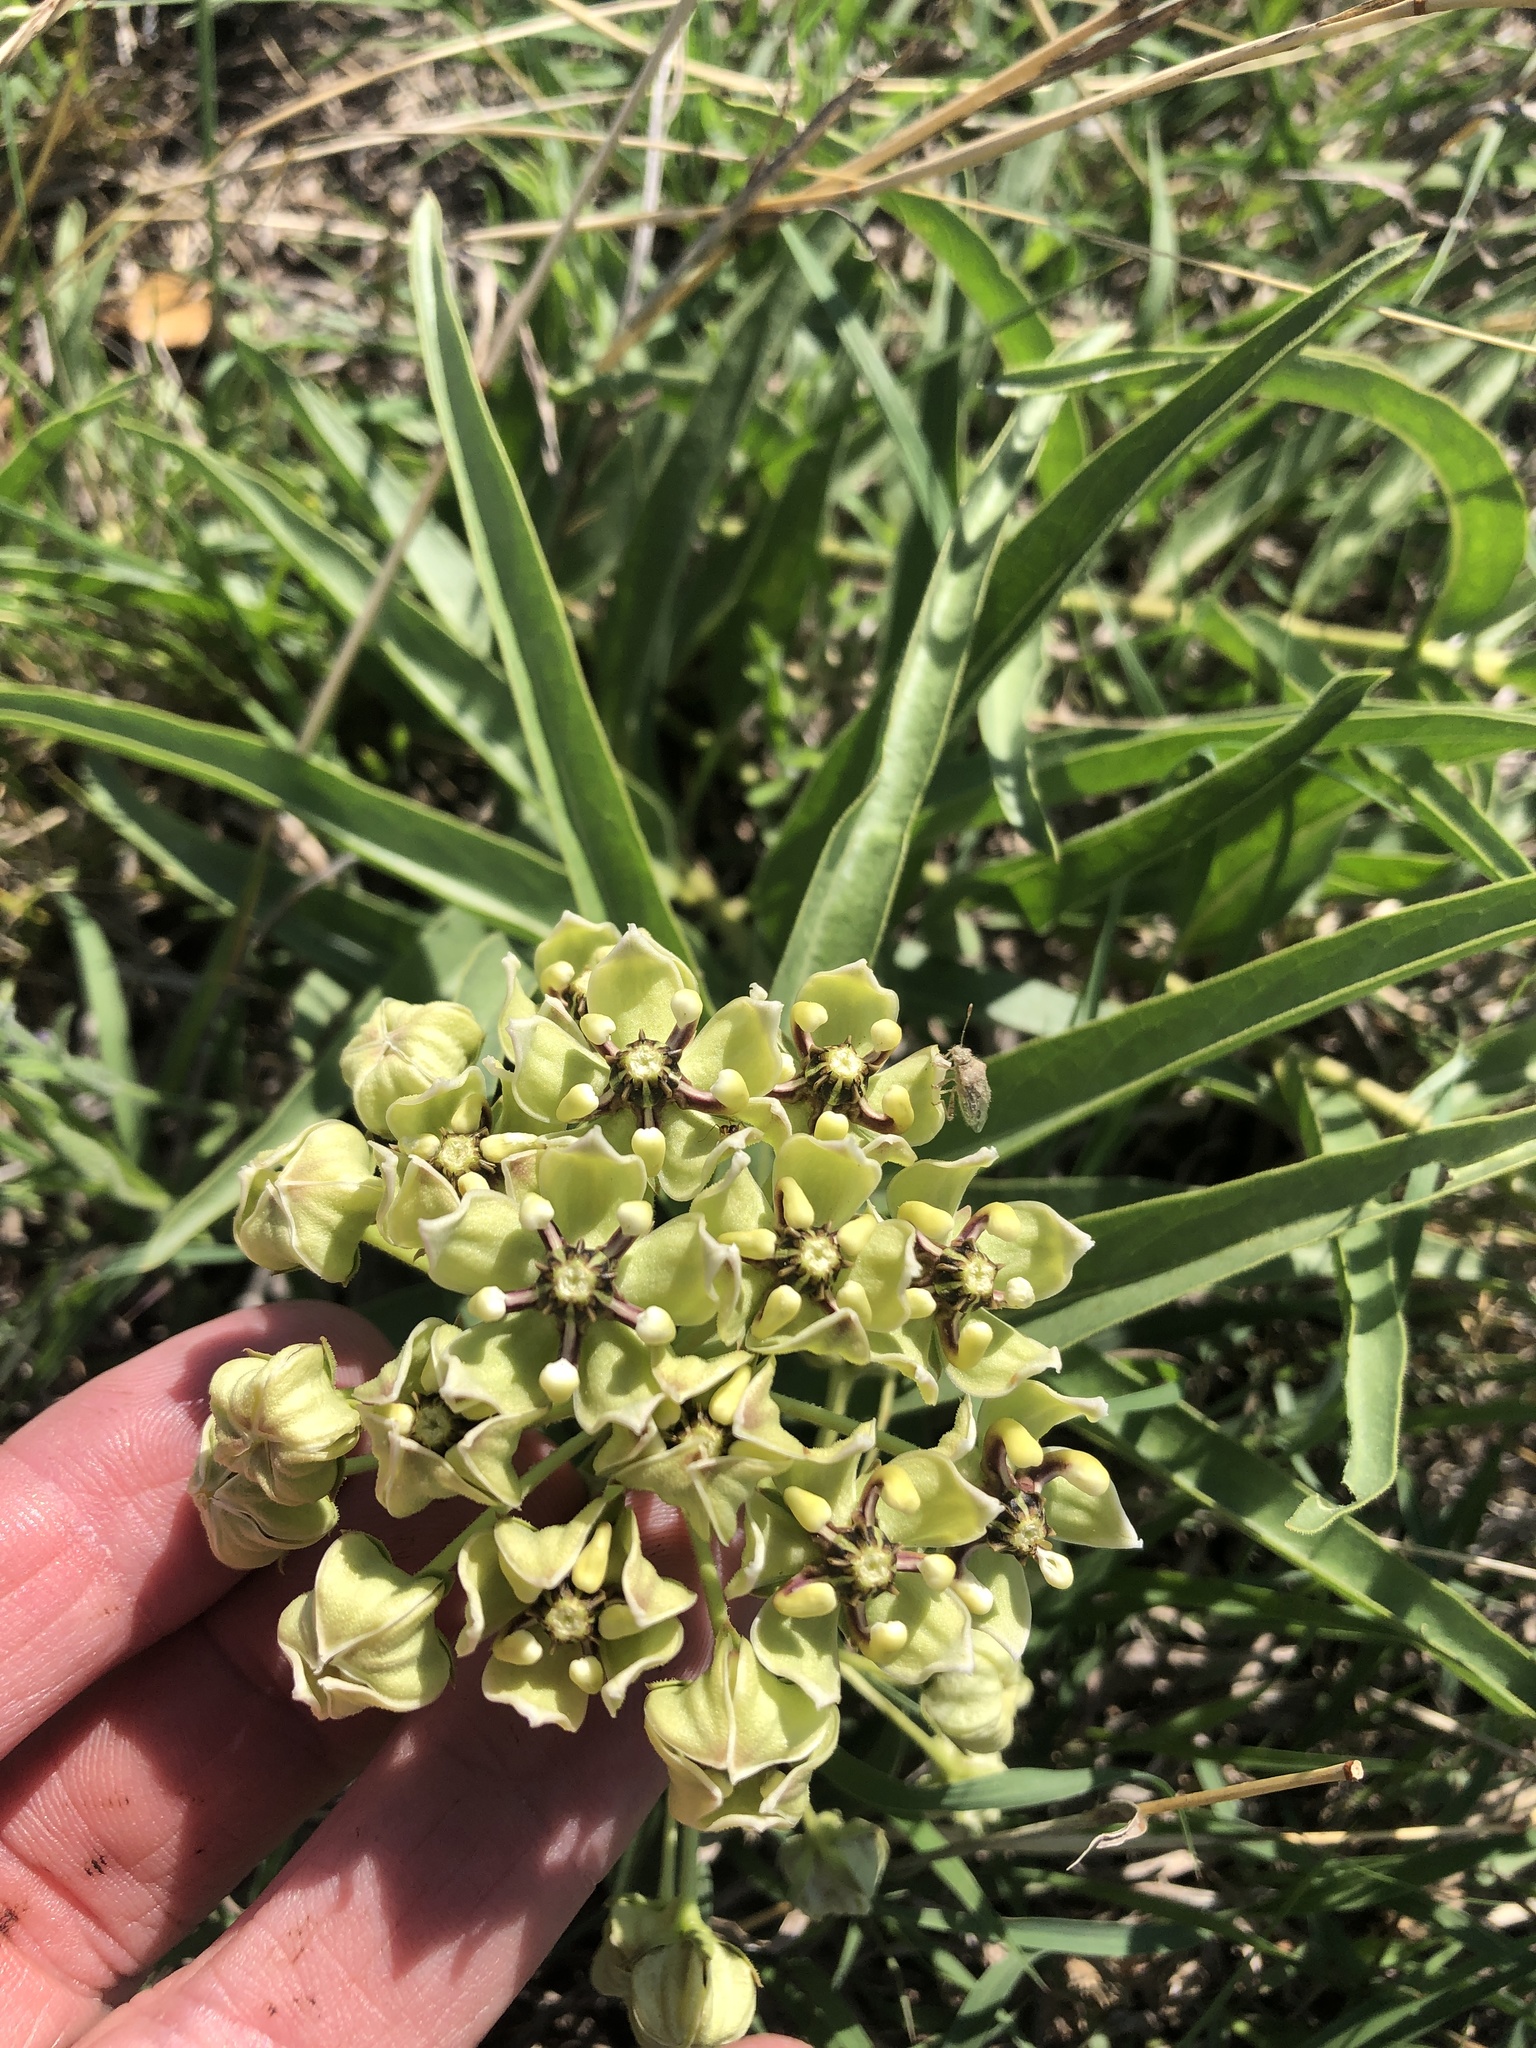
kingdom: Plantae
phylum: Tracheophyta
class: Magnoliopsida
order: Gentianales
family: Apocynaceae
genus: Asclepias
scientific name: Asclepias asperula
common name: Antelope horns
